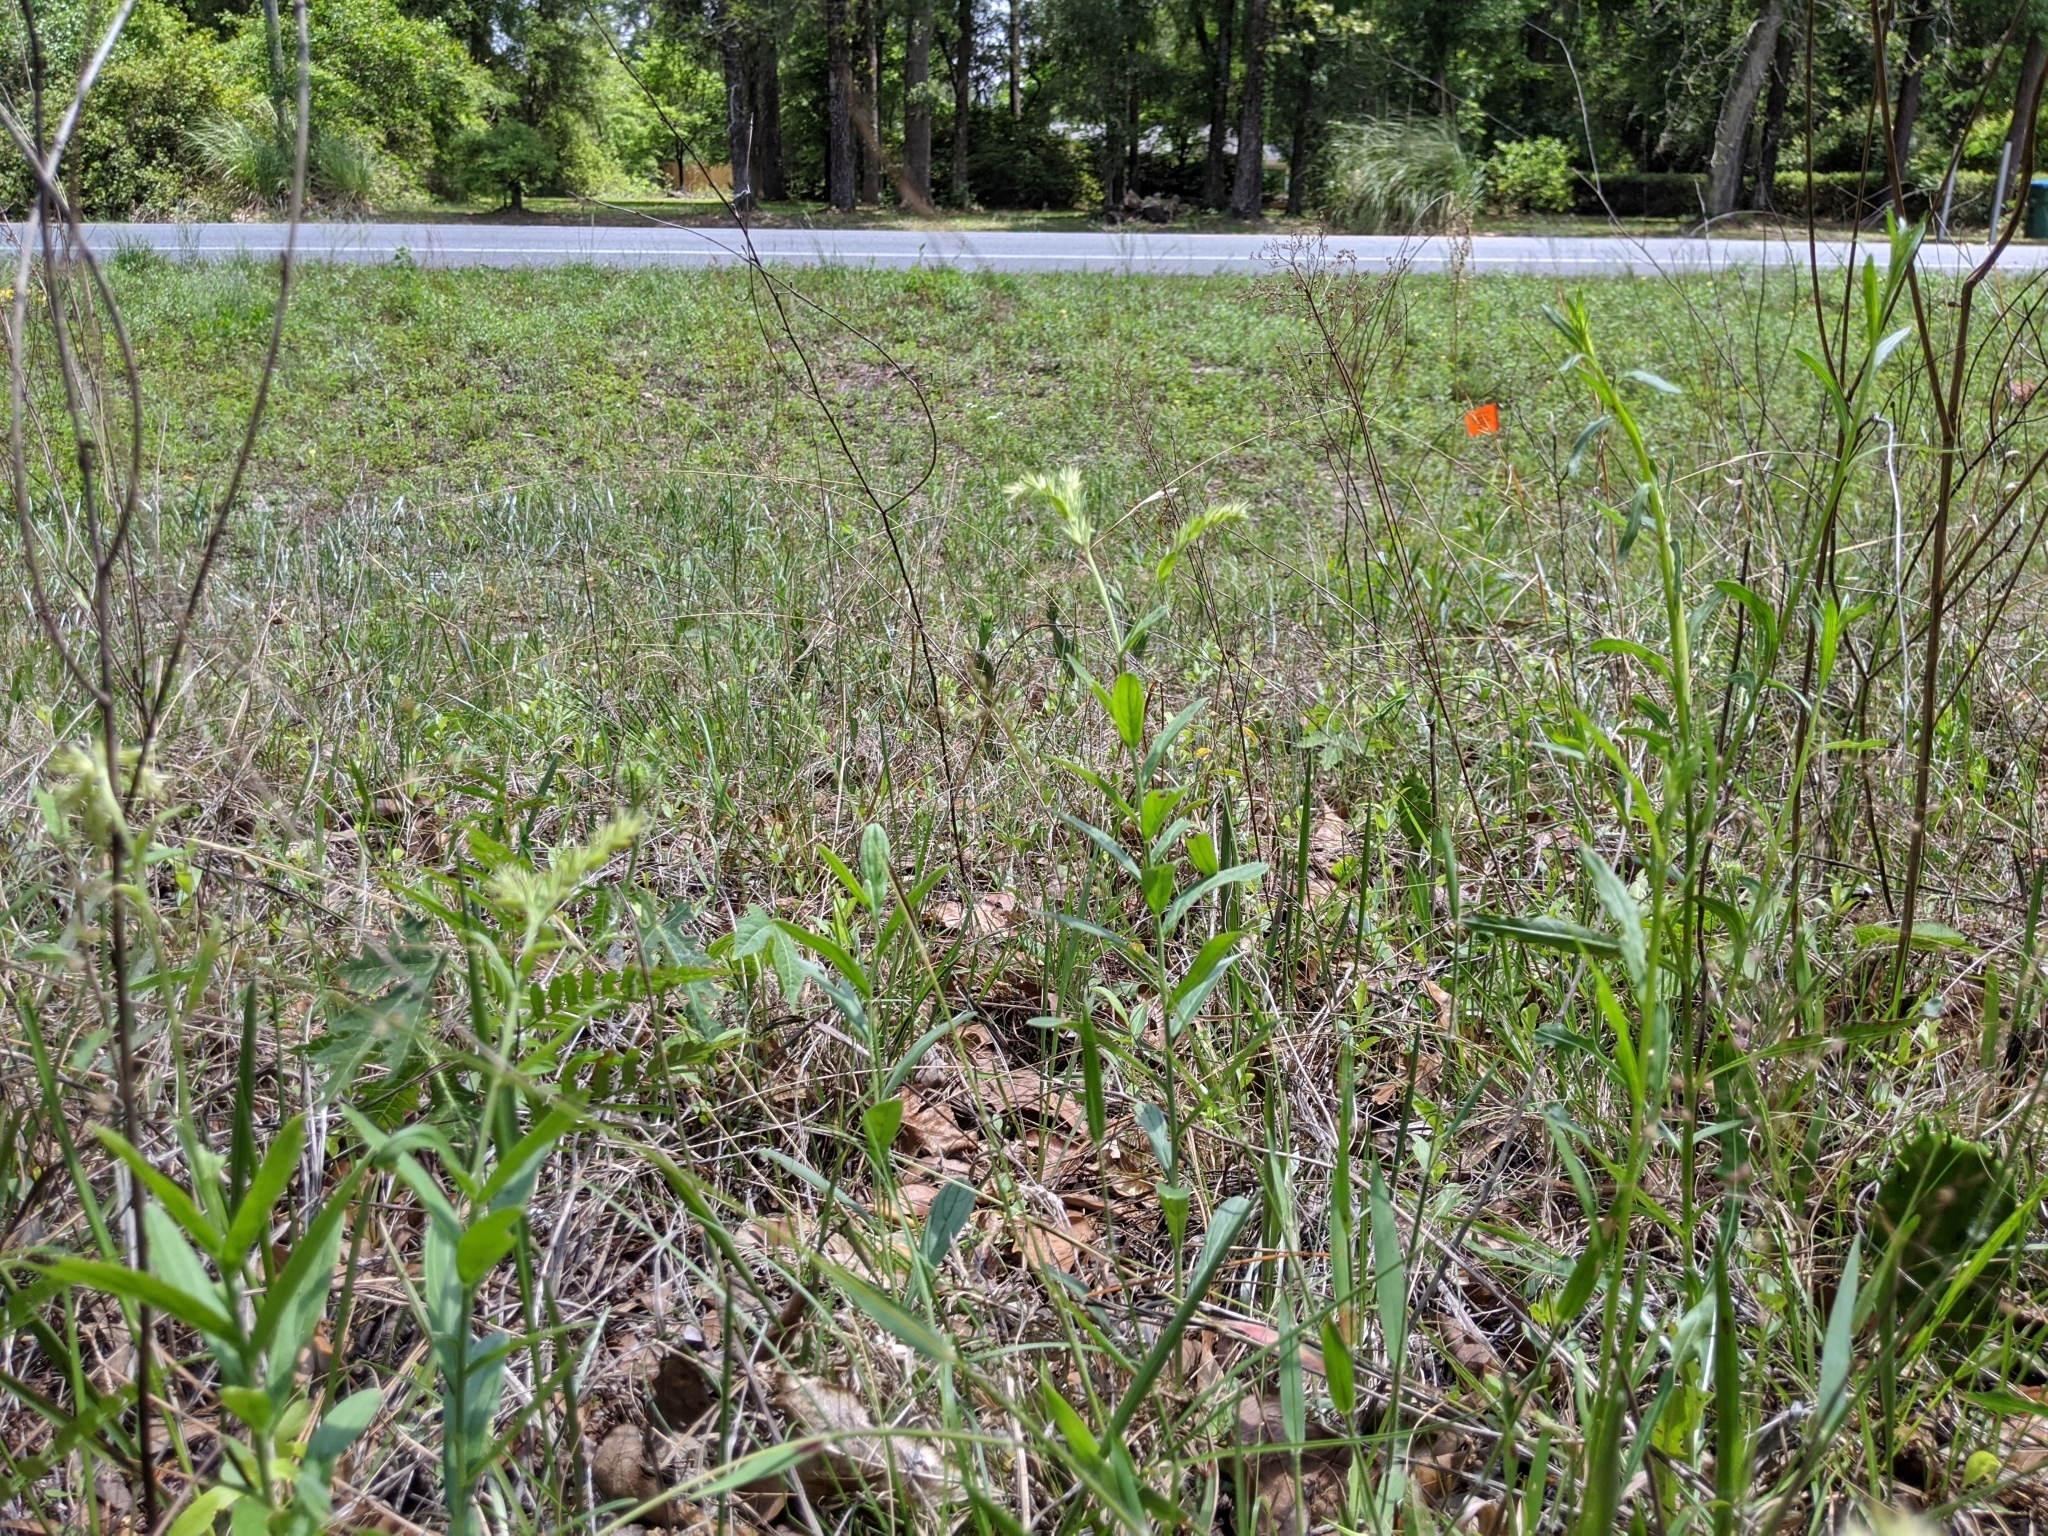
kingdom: Plantae
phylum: Tracheophyta
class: Magnoliopsida
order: Boraginales
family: Boraginaceae
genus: Lithospermum
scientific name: Lithospermum virginianum
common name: Eastern false gromwell
